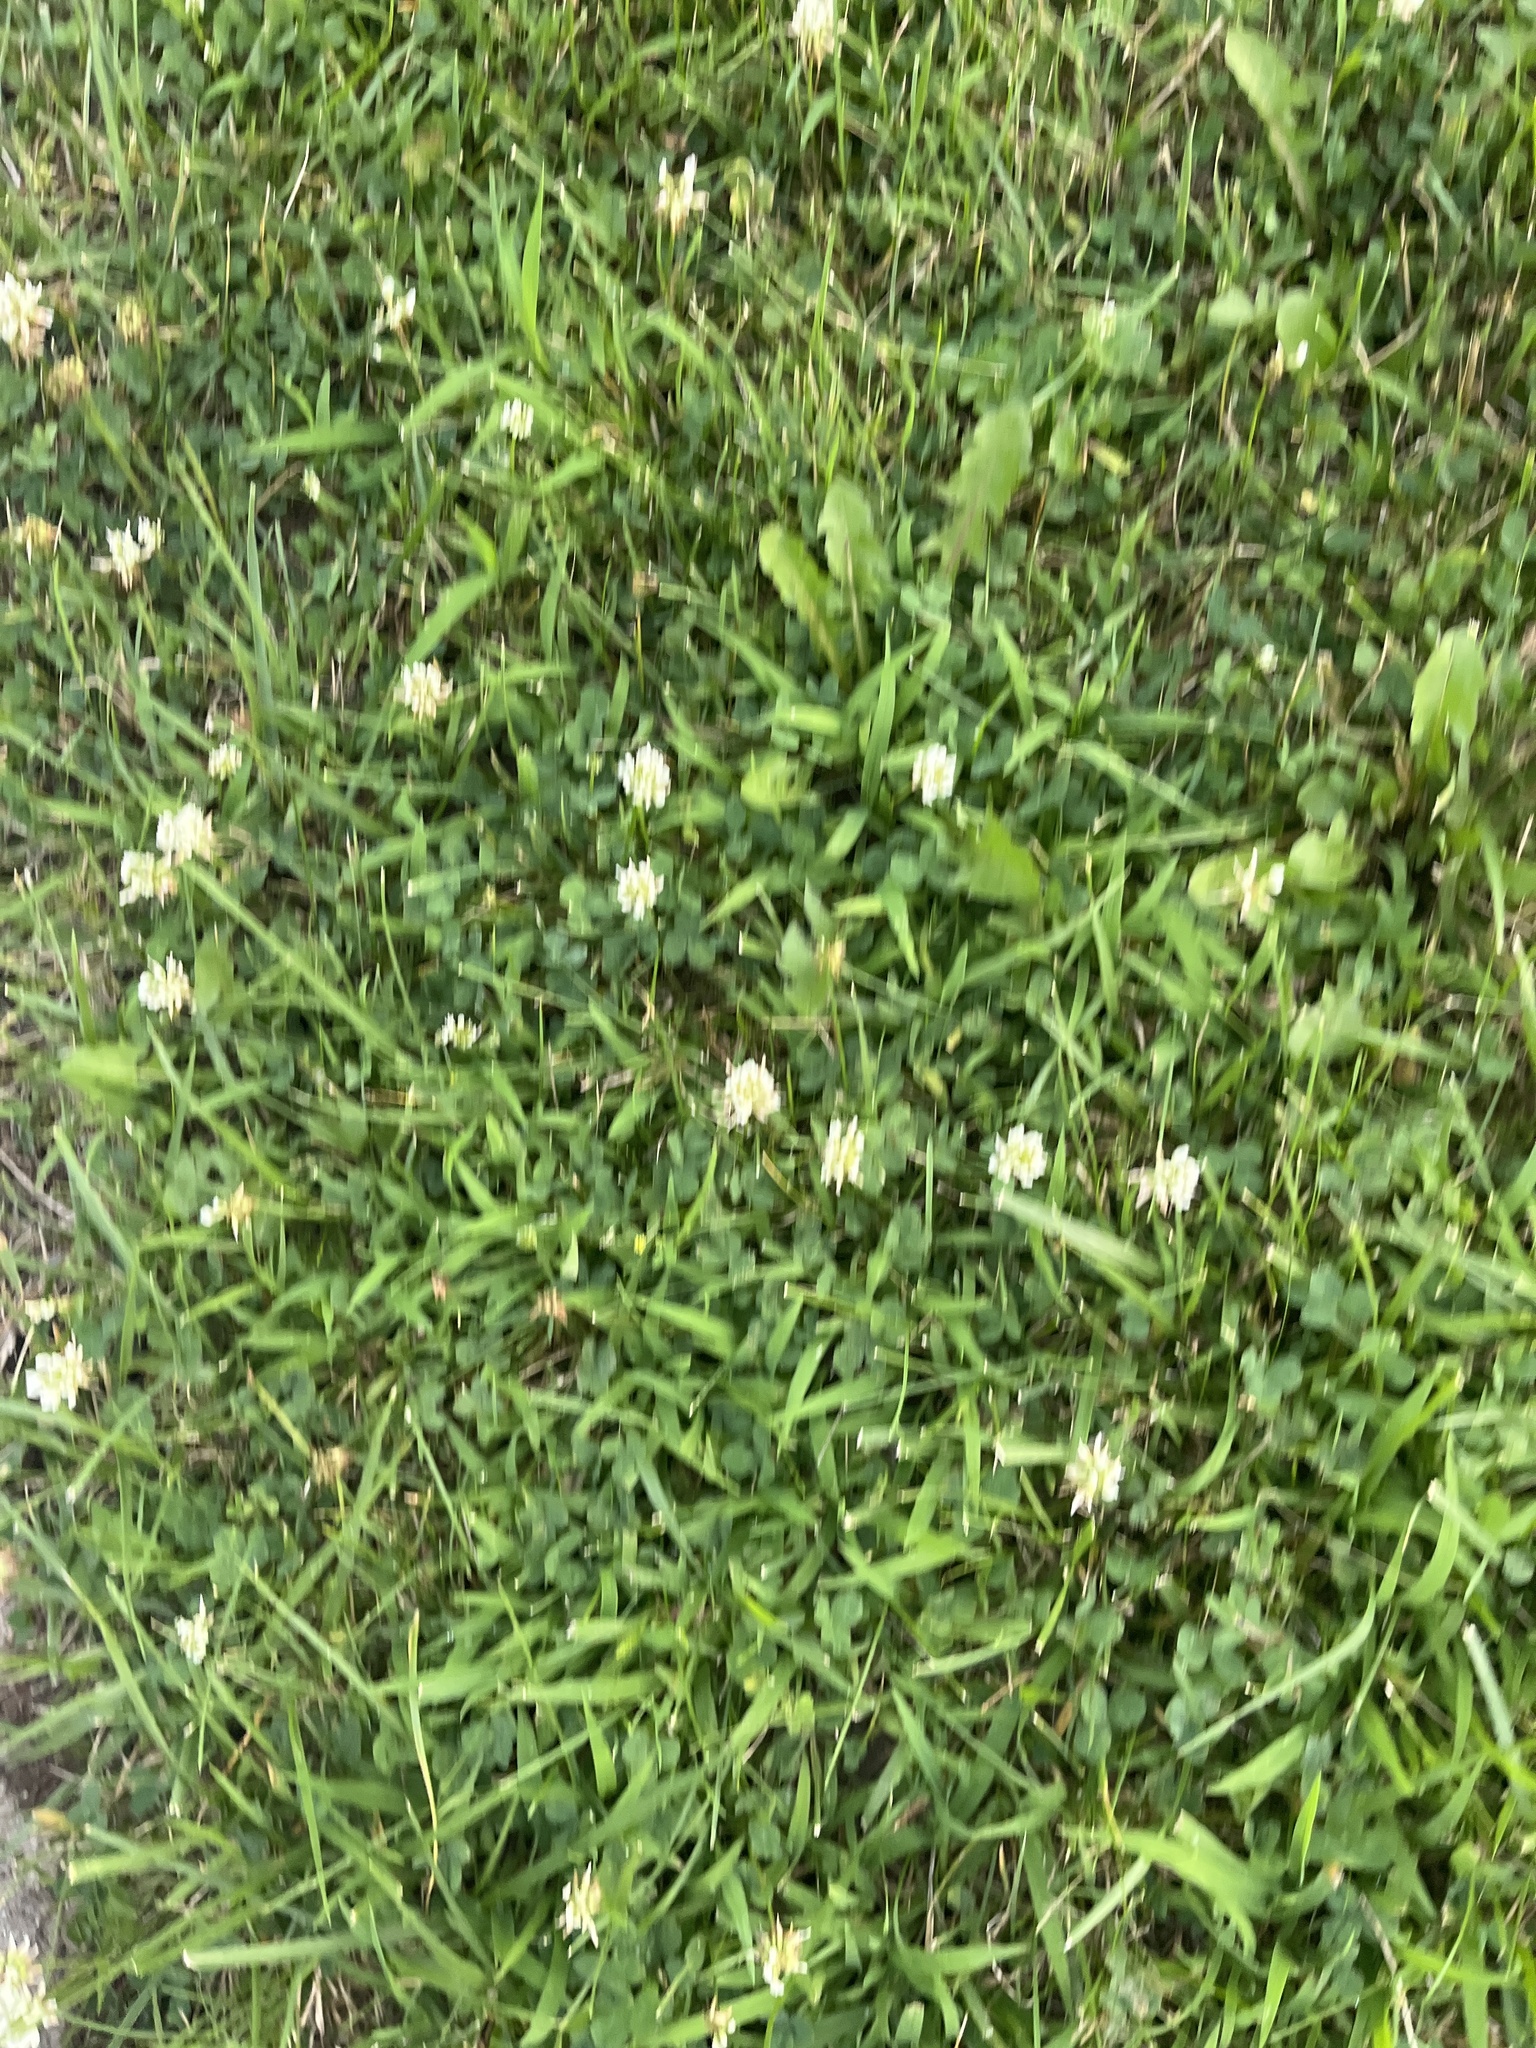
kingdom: Plantae
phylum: Tracheophyta
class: Magnoliopsida
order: Fabales
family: Fabaceae
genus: Trifolium
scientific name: Trifolium repens
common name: White clover
